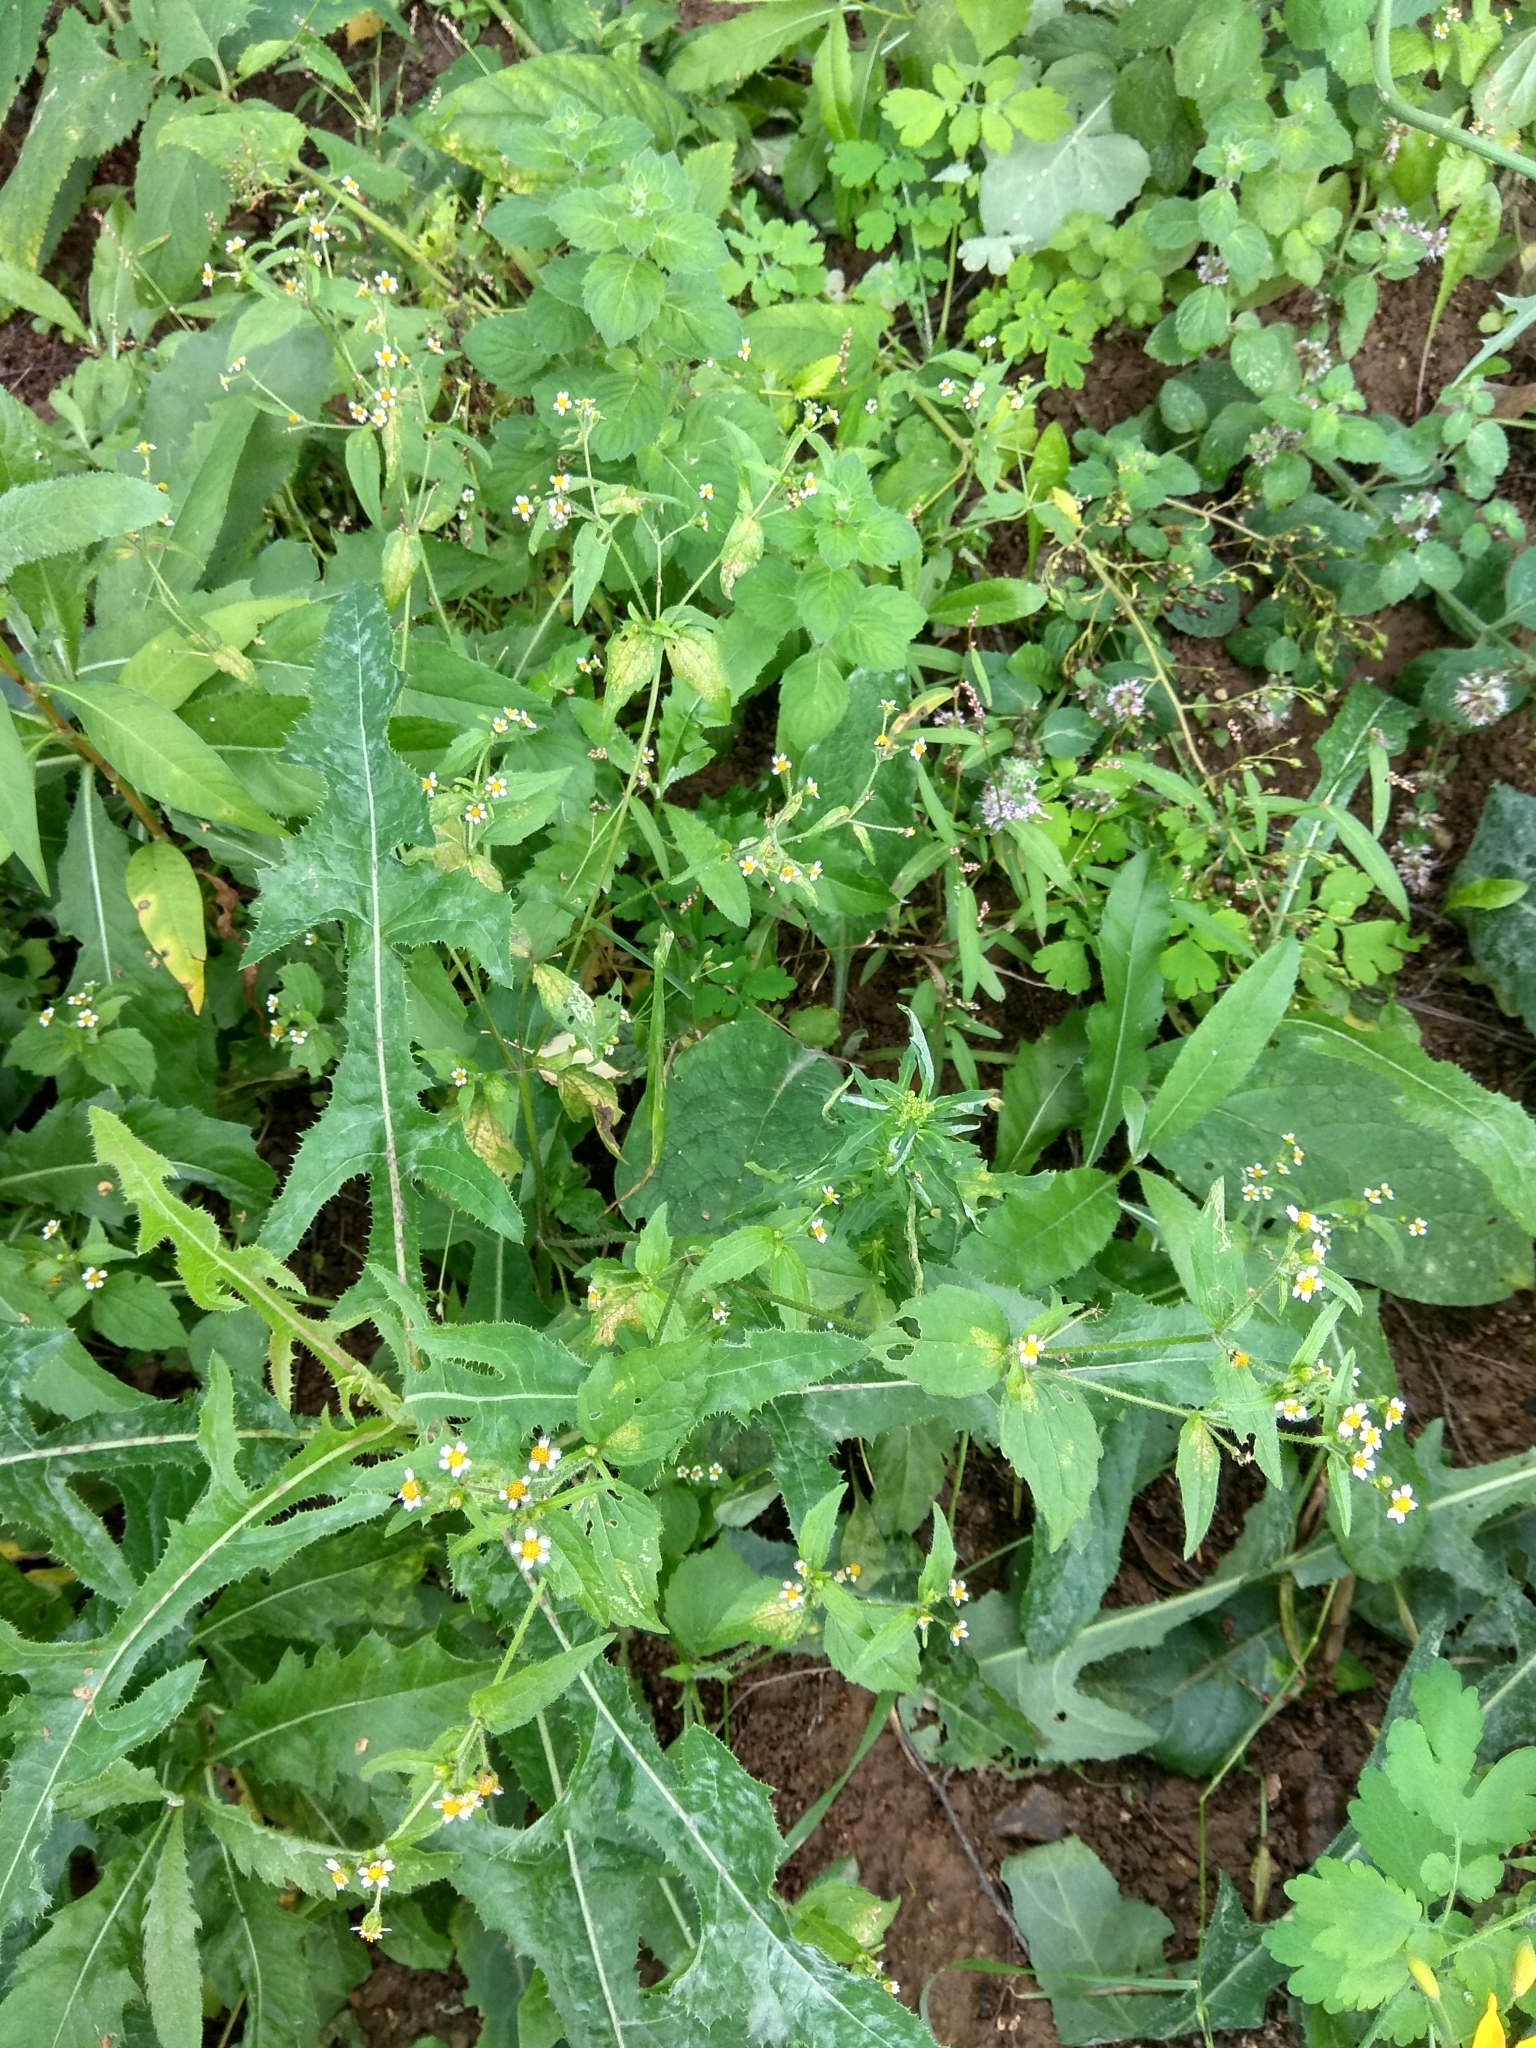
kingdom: Plantae
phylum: Tracheophyta
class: Magnoliopsida
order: Asterales
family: Asteraceae
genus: Galinsoga
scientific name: Galinsoga quadriradiata
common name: Shaggy soldier
